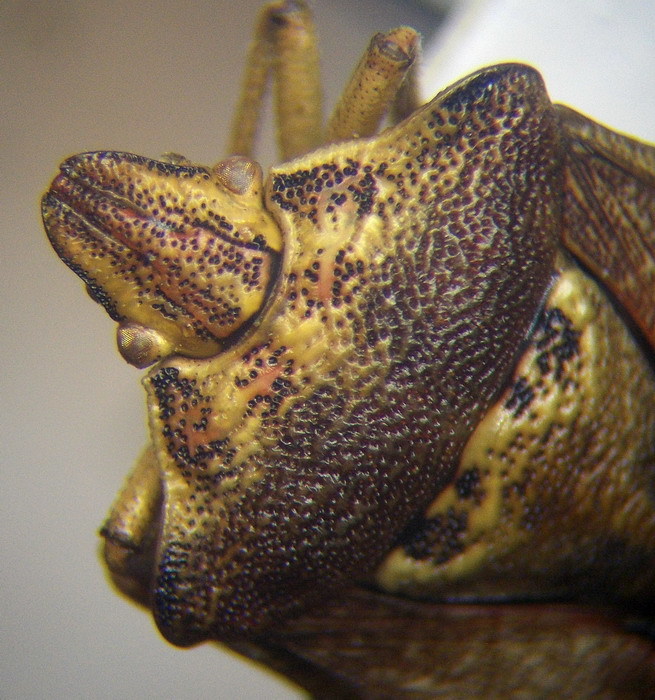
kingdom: Animalia
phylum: Arthropoda
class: Insecta
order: Hemiptera
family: Miridae
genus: Orthops
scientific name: Orthops kalmii
